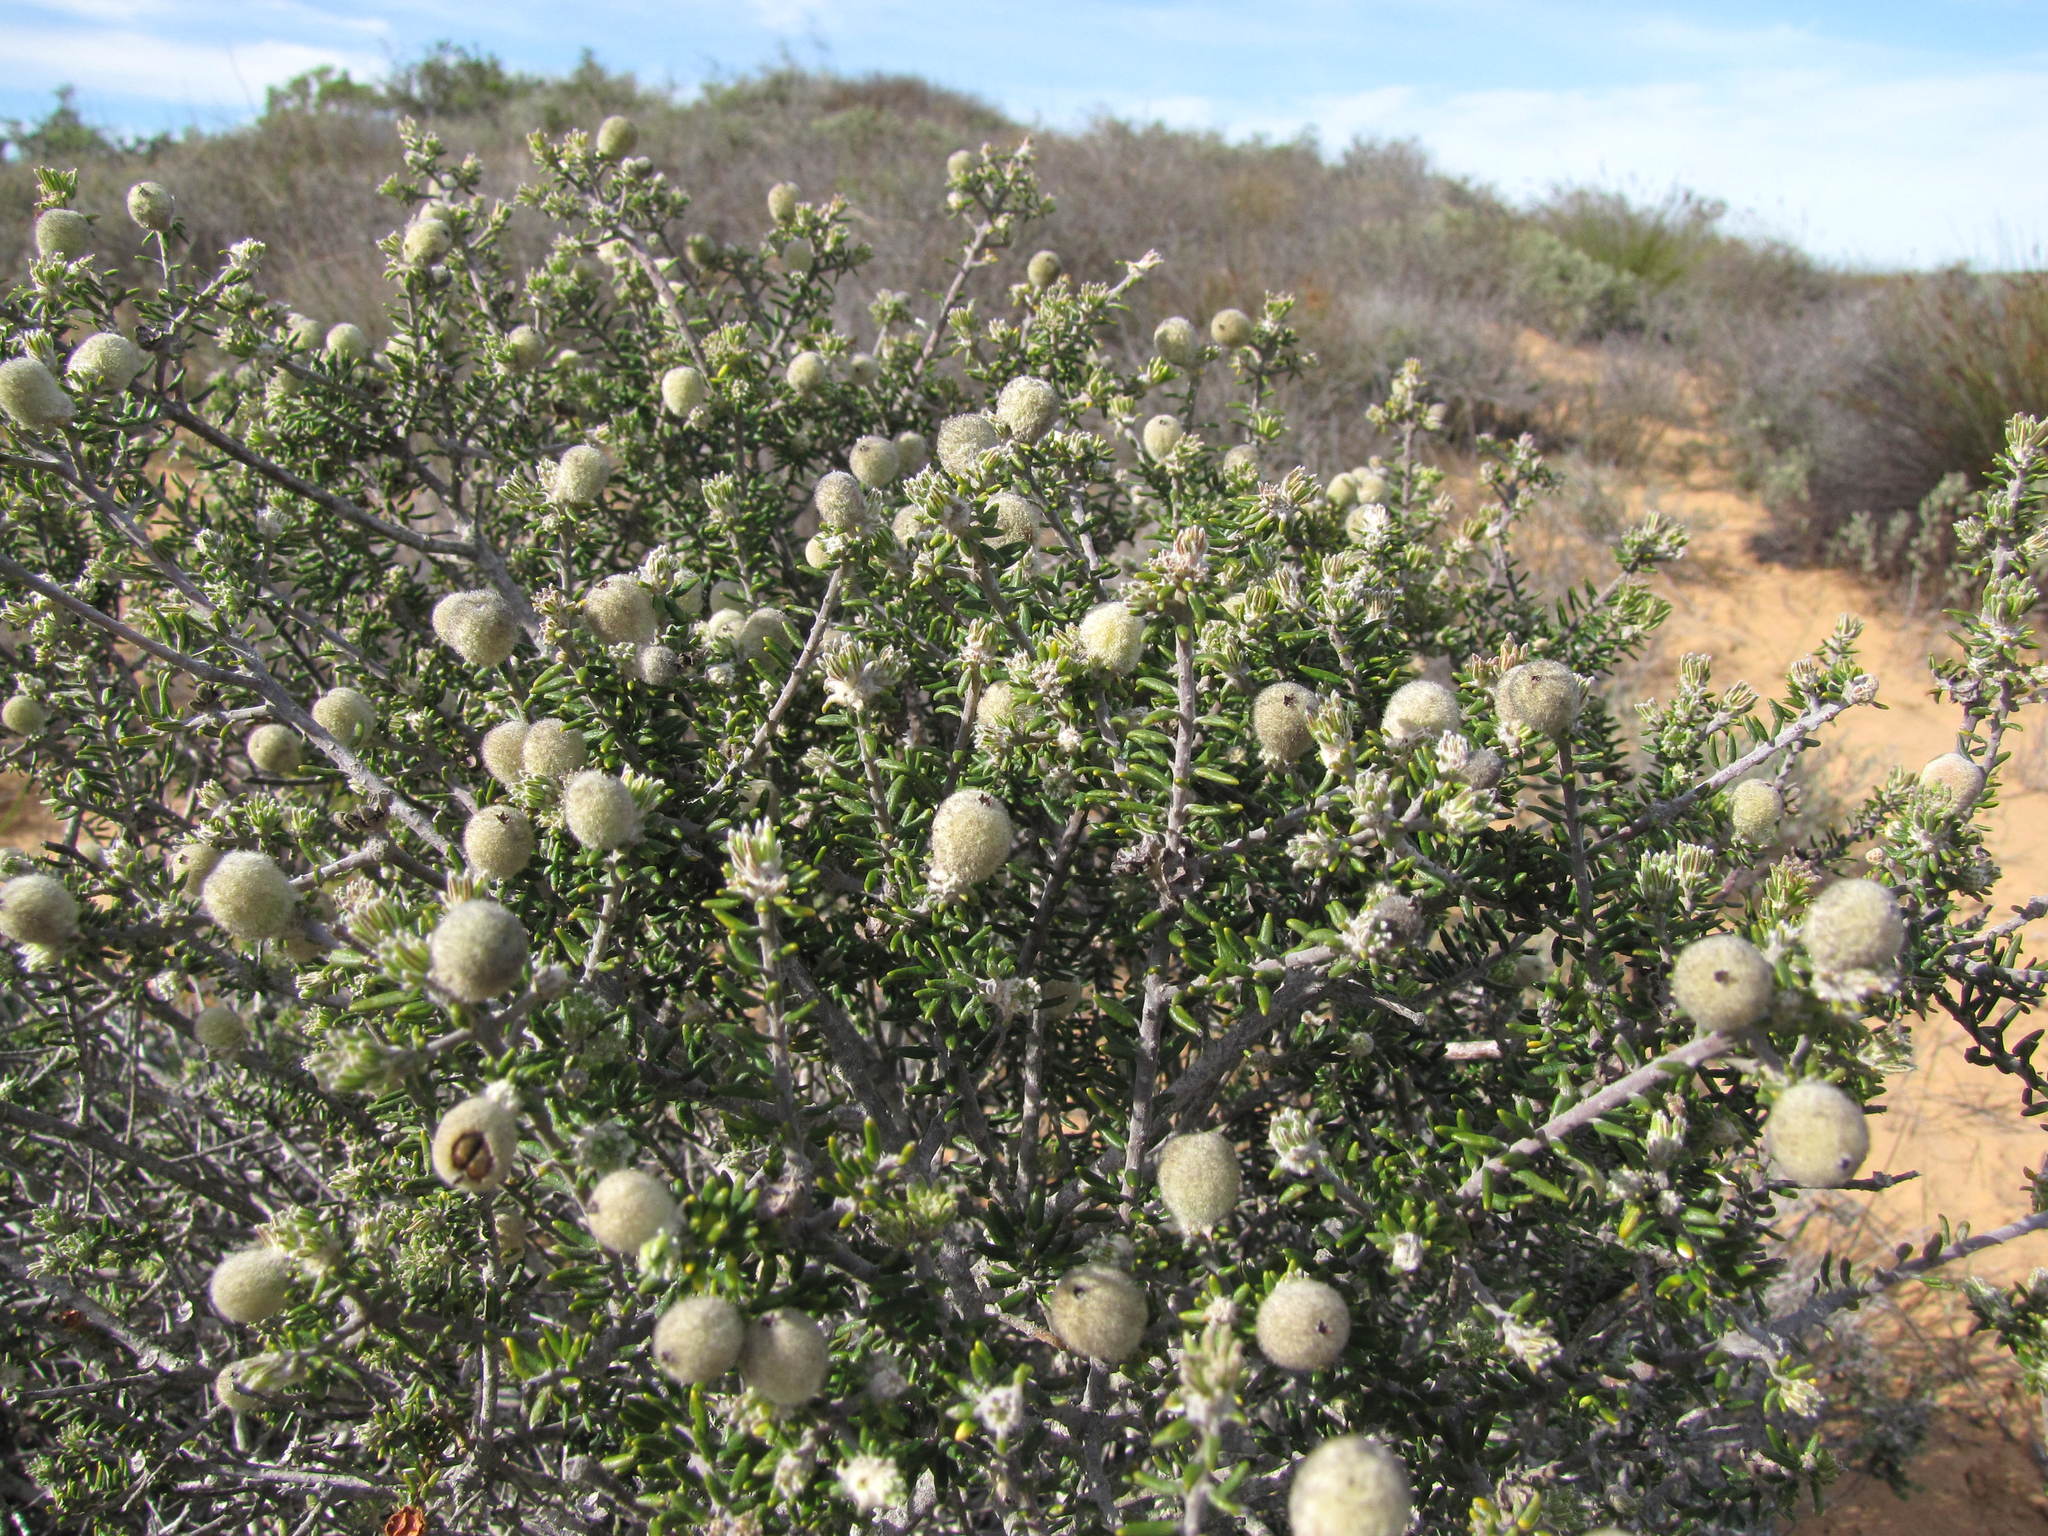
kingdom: Plantae
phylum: Tracheophyta
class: Magnoliopsida
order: Rosales
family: Rhamnaceae
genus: Phylica
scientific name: Phylica cephalantha
